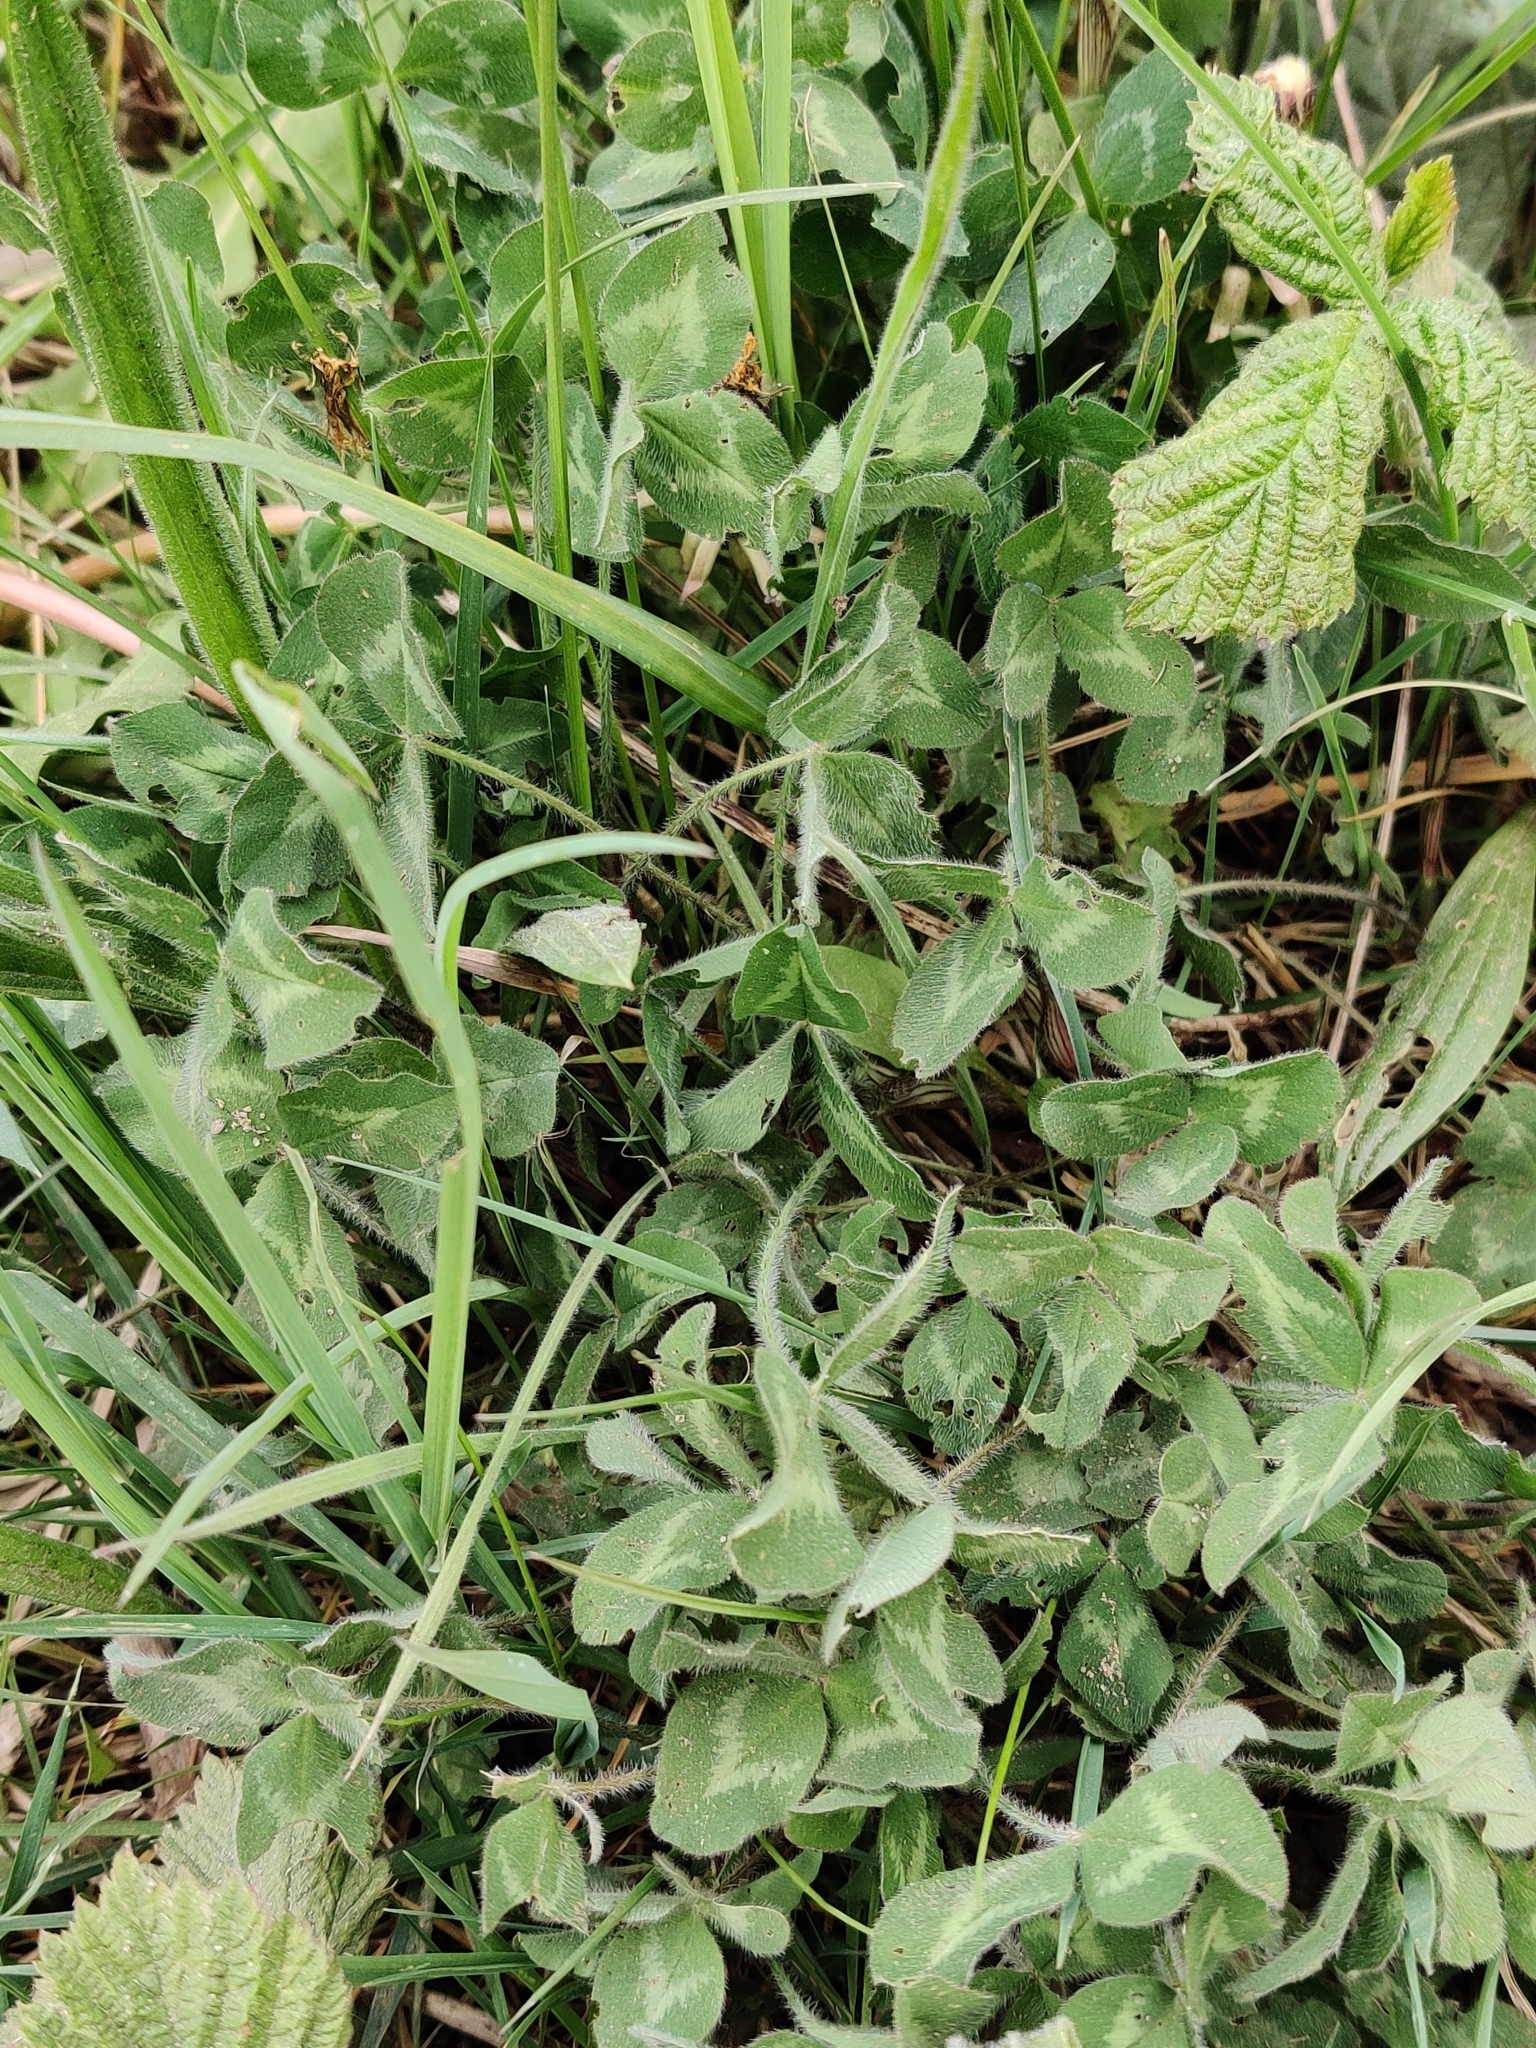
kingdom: Plantae
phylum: Tracheophyta
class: Magnoliopsida
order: Fabales
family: Fabaceae
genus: Trifolium
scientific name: Trifolium pratense
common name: Red clover
